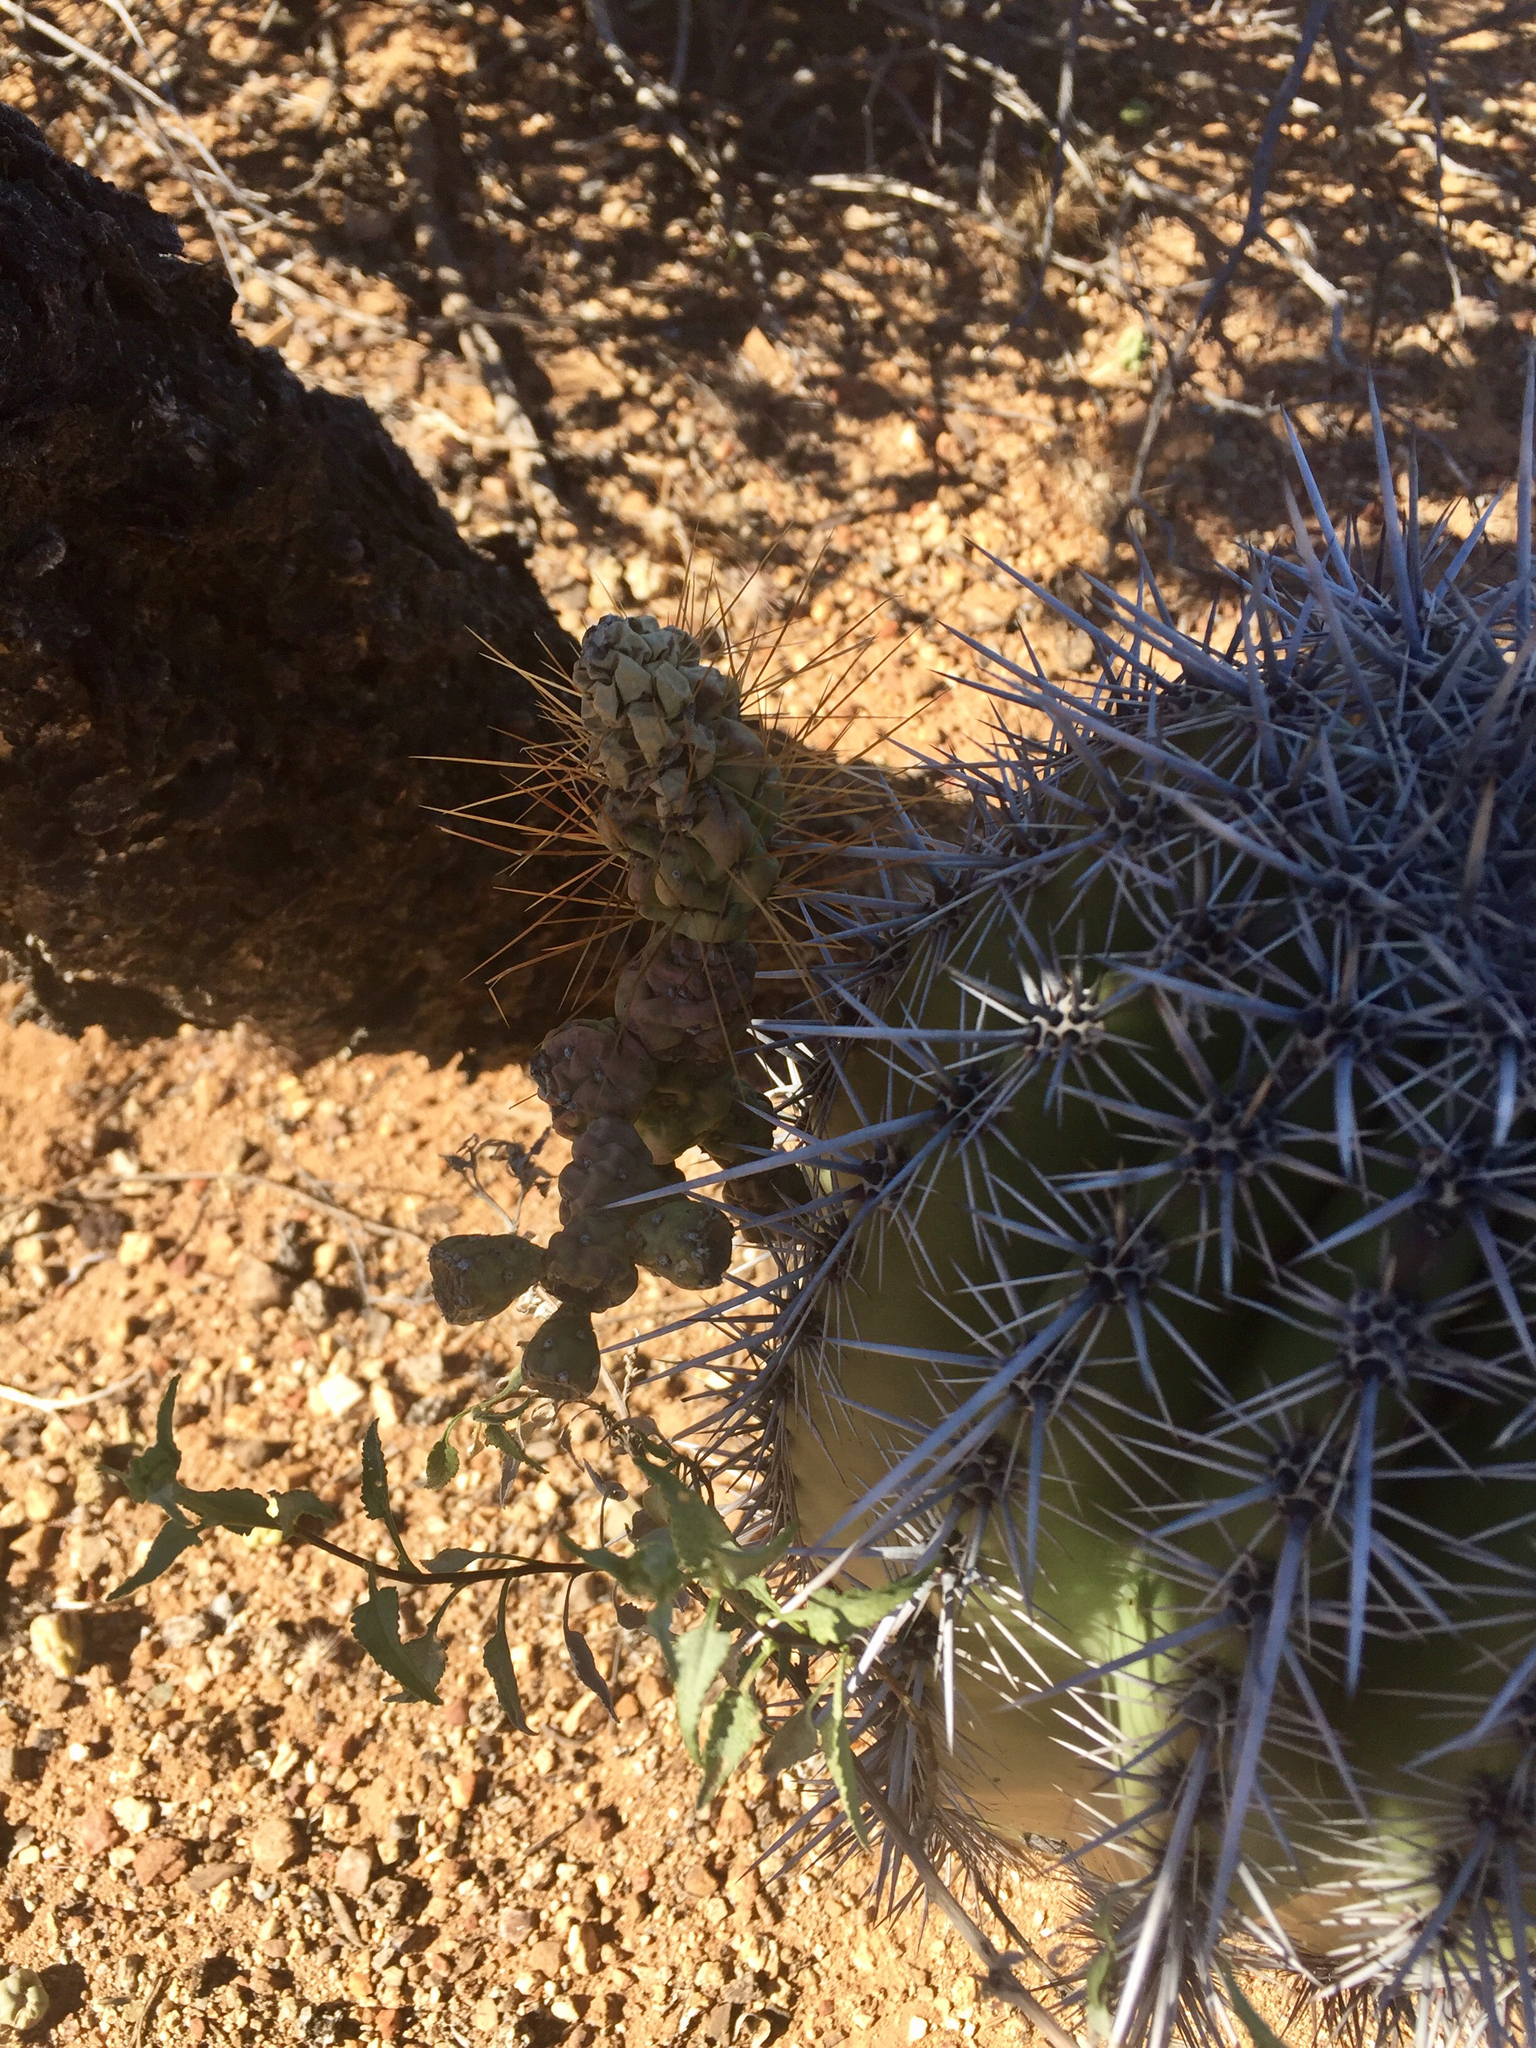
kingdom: Plantae
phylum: Tracheophyta
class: Magnoliopsida
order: Caryophyllales
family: Cactaceae
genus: Carnegiea
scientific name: Carnegiea gigantea
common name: Saguaro
